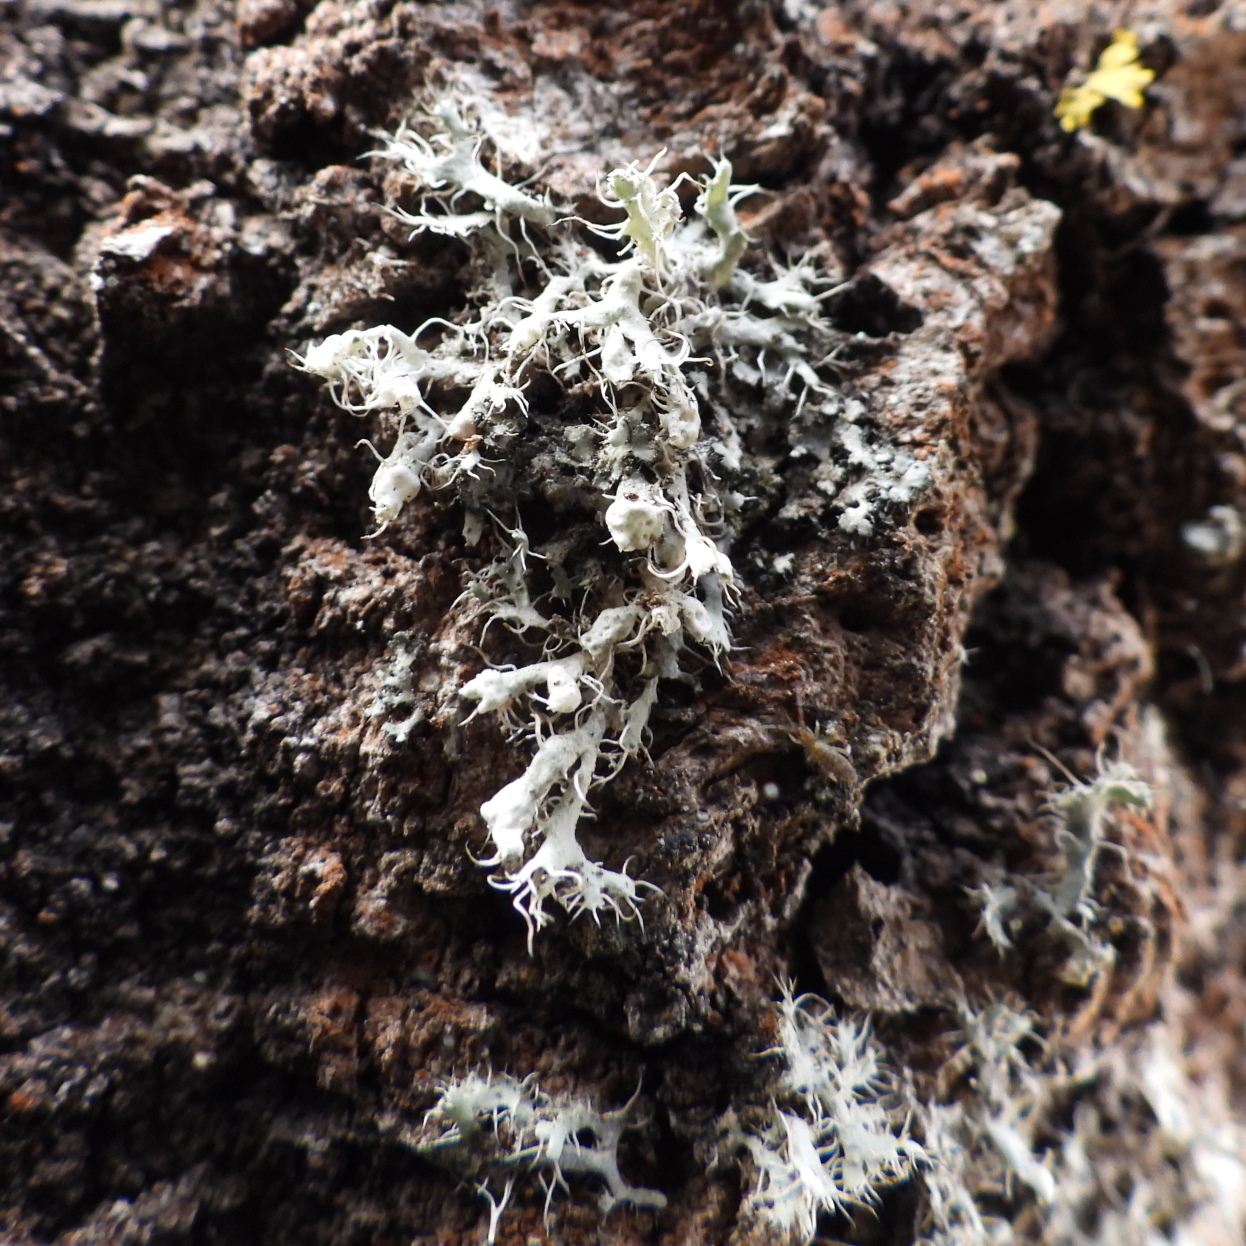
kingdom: Fungi
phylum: Ascomycota
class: Lecanoromycetes
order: Caliciales
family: Physciaceae
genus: Physcia
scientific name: Physcia adscendens
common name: Hooded rosette lichen
